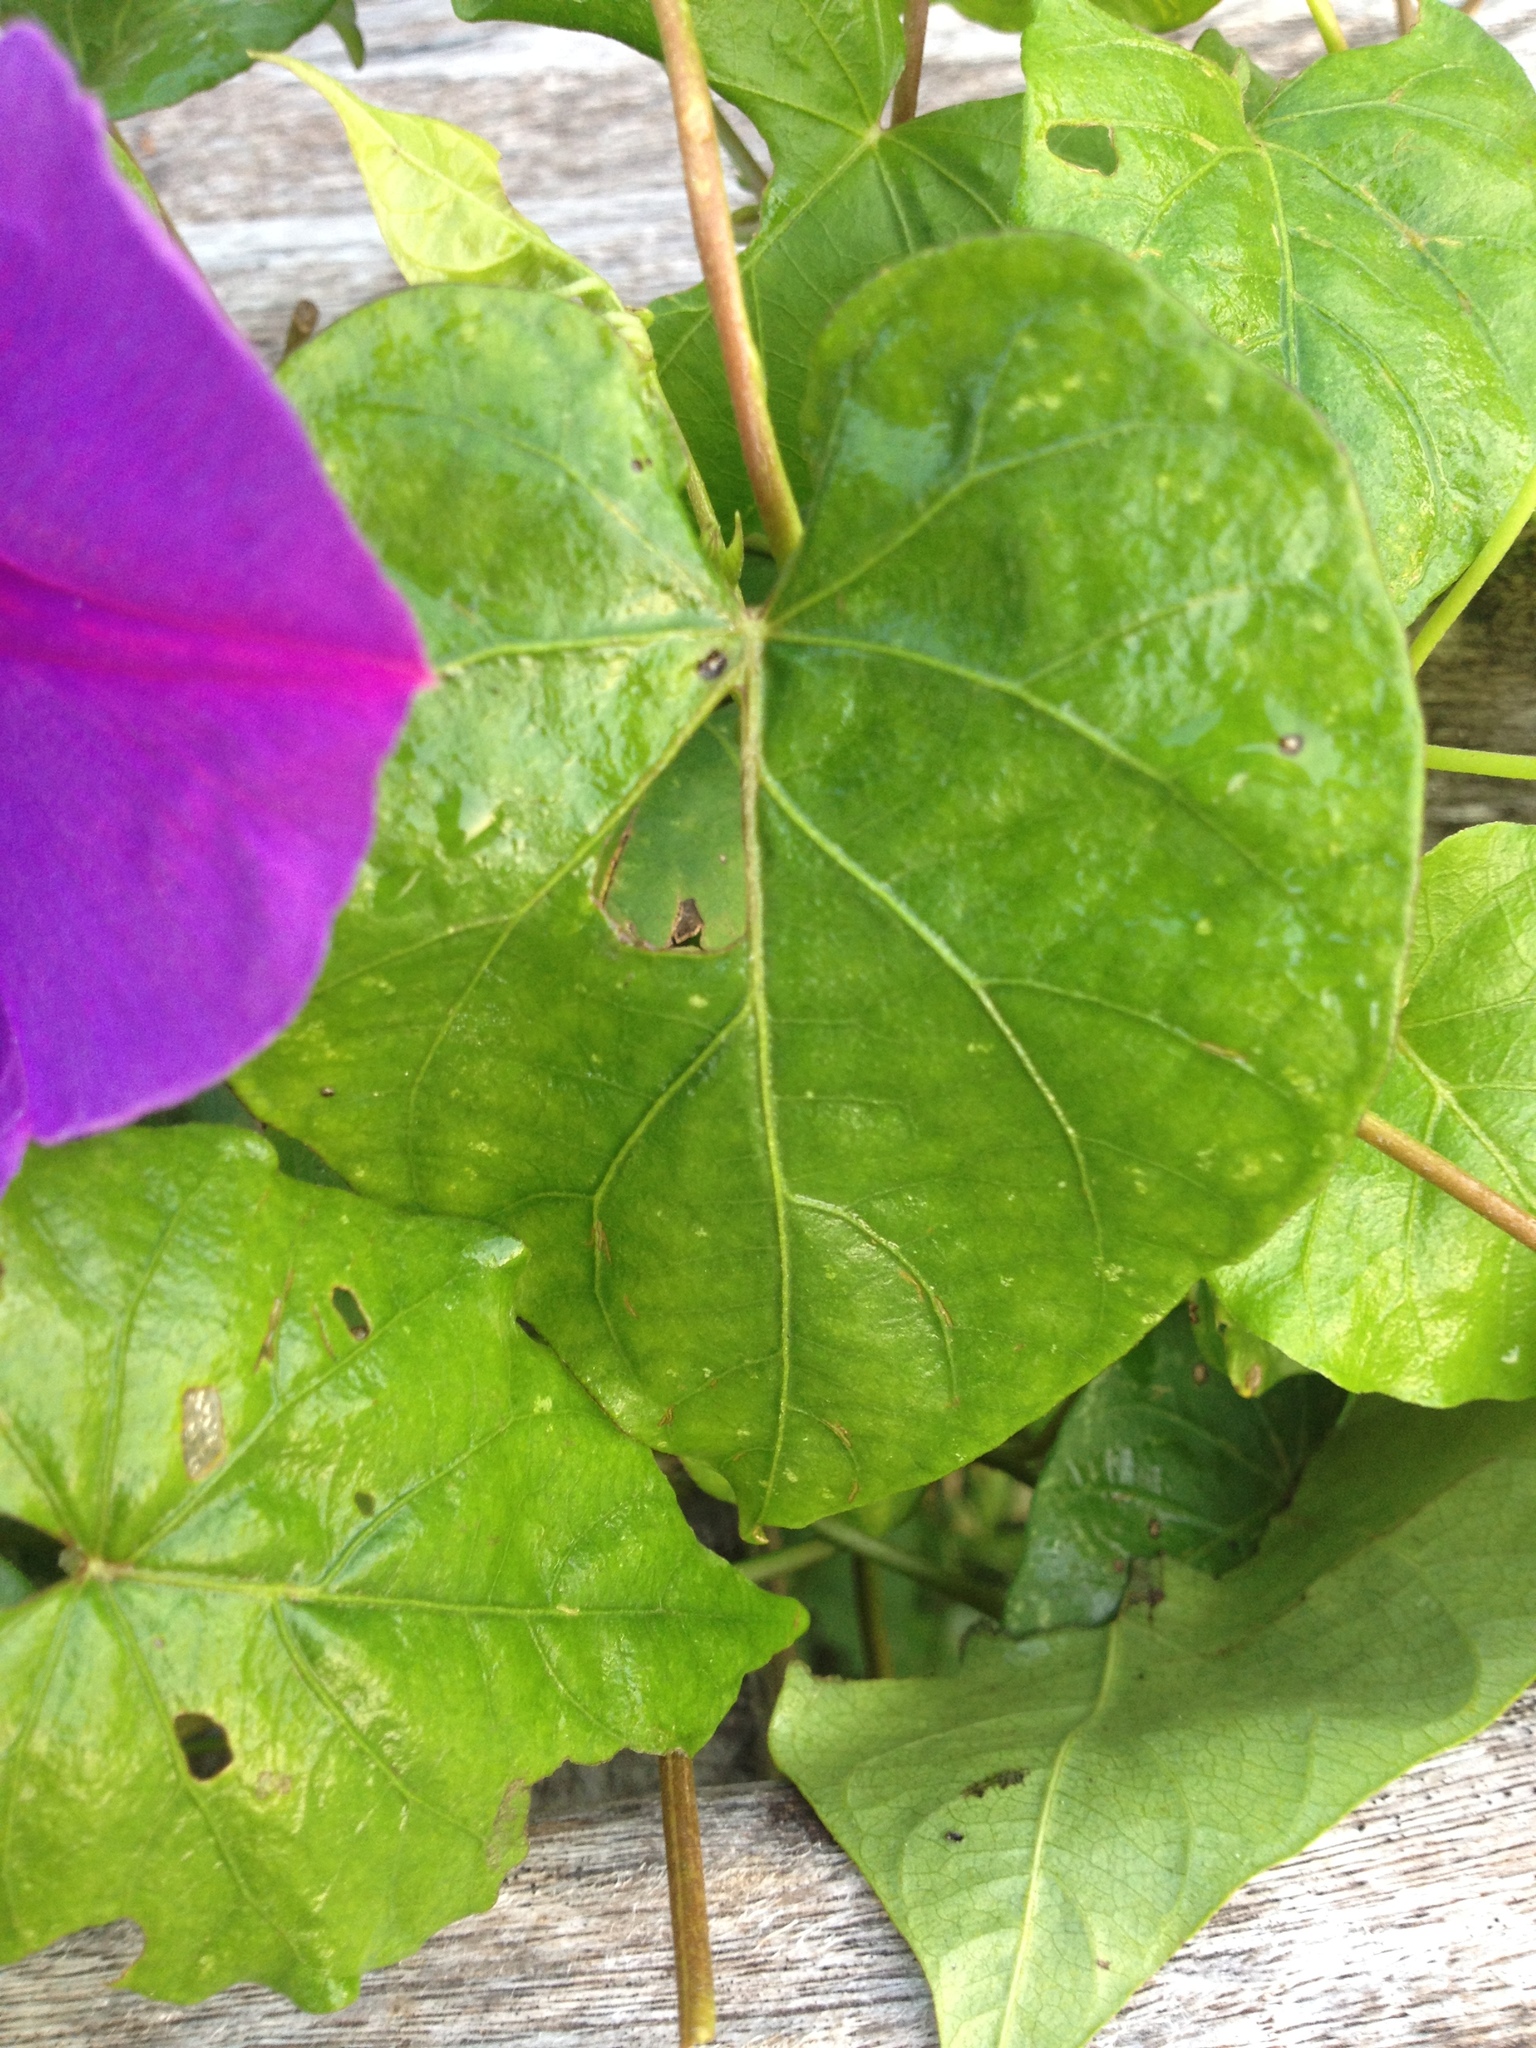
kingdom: Plantae
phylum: Tracheophyta
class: Magnoliopsida
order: Solanales
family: Convolvulaceae
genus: Ipomoea
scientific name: Ipomoea indica
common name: Blue dawnflower
